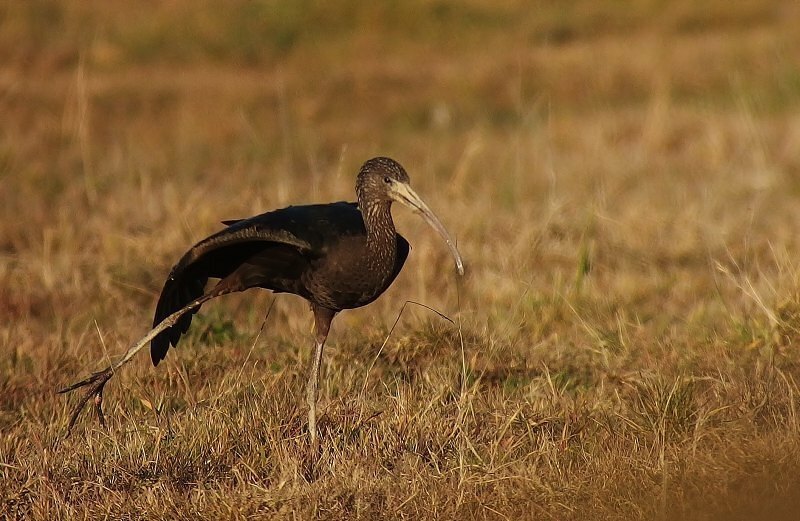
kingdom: Animalia
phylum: Chordata
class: Aves
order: Pelecaniformes
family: Threskiornithidae
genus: Plegadis
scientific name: Plegadis falcinellus
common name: Glossy ibis
